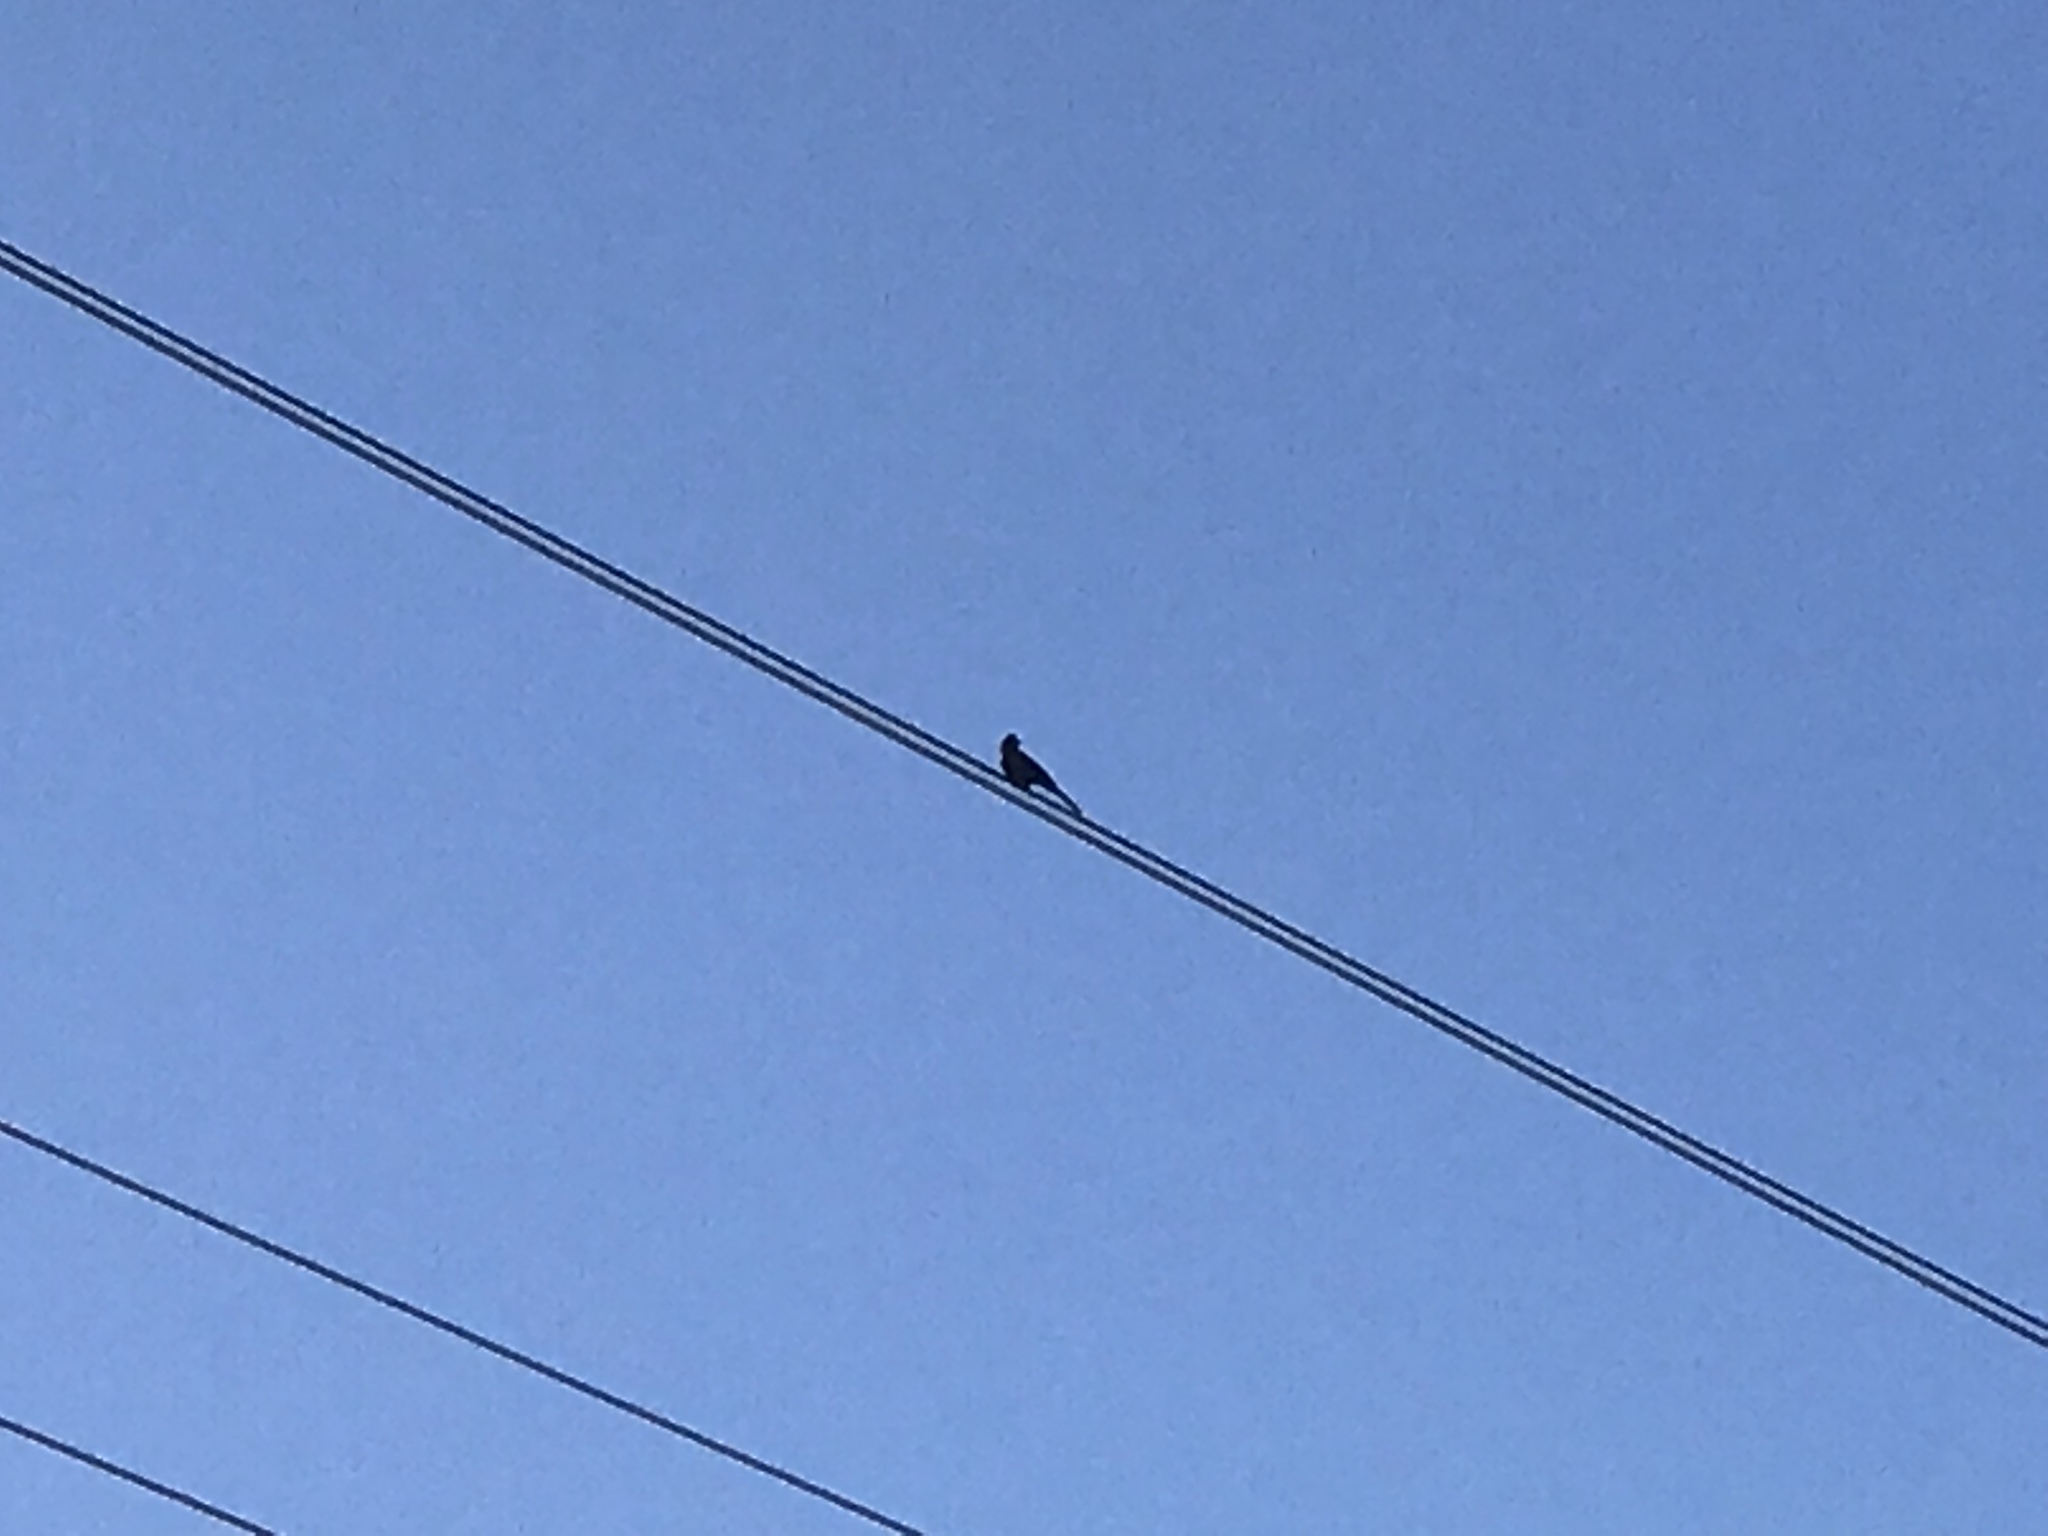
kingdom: Animalia
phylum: Chordata
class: Aves
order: Passeriformes
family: Ptilogonatidae
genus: Phainopepla
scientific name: Phainopepla nitens
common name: Phainopepla
